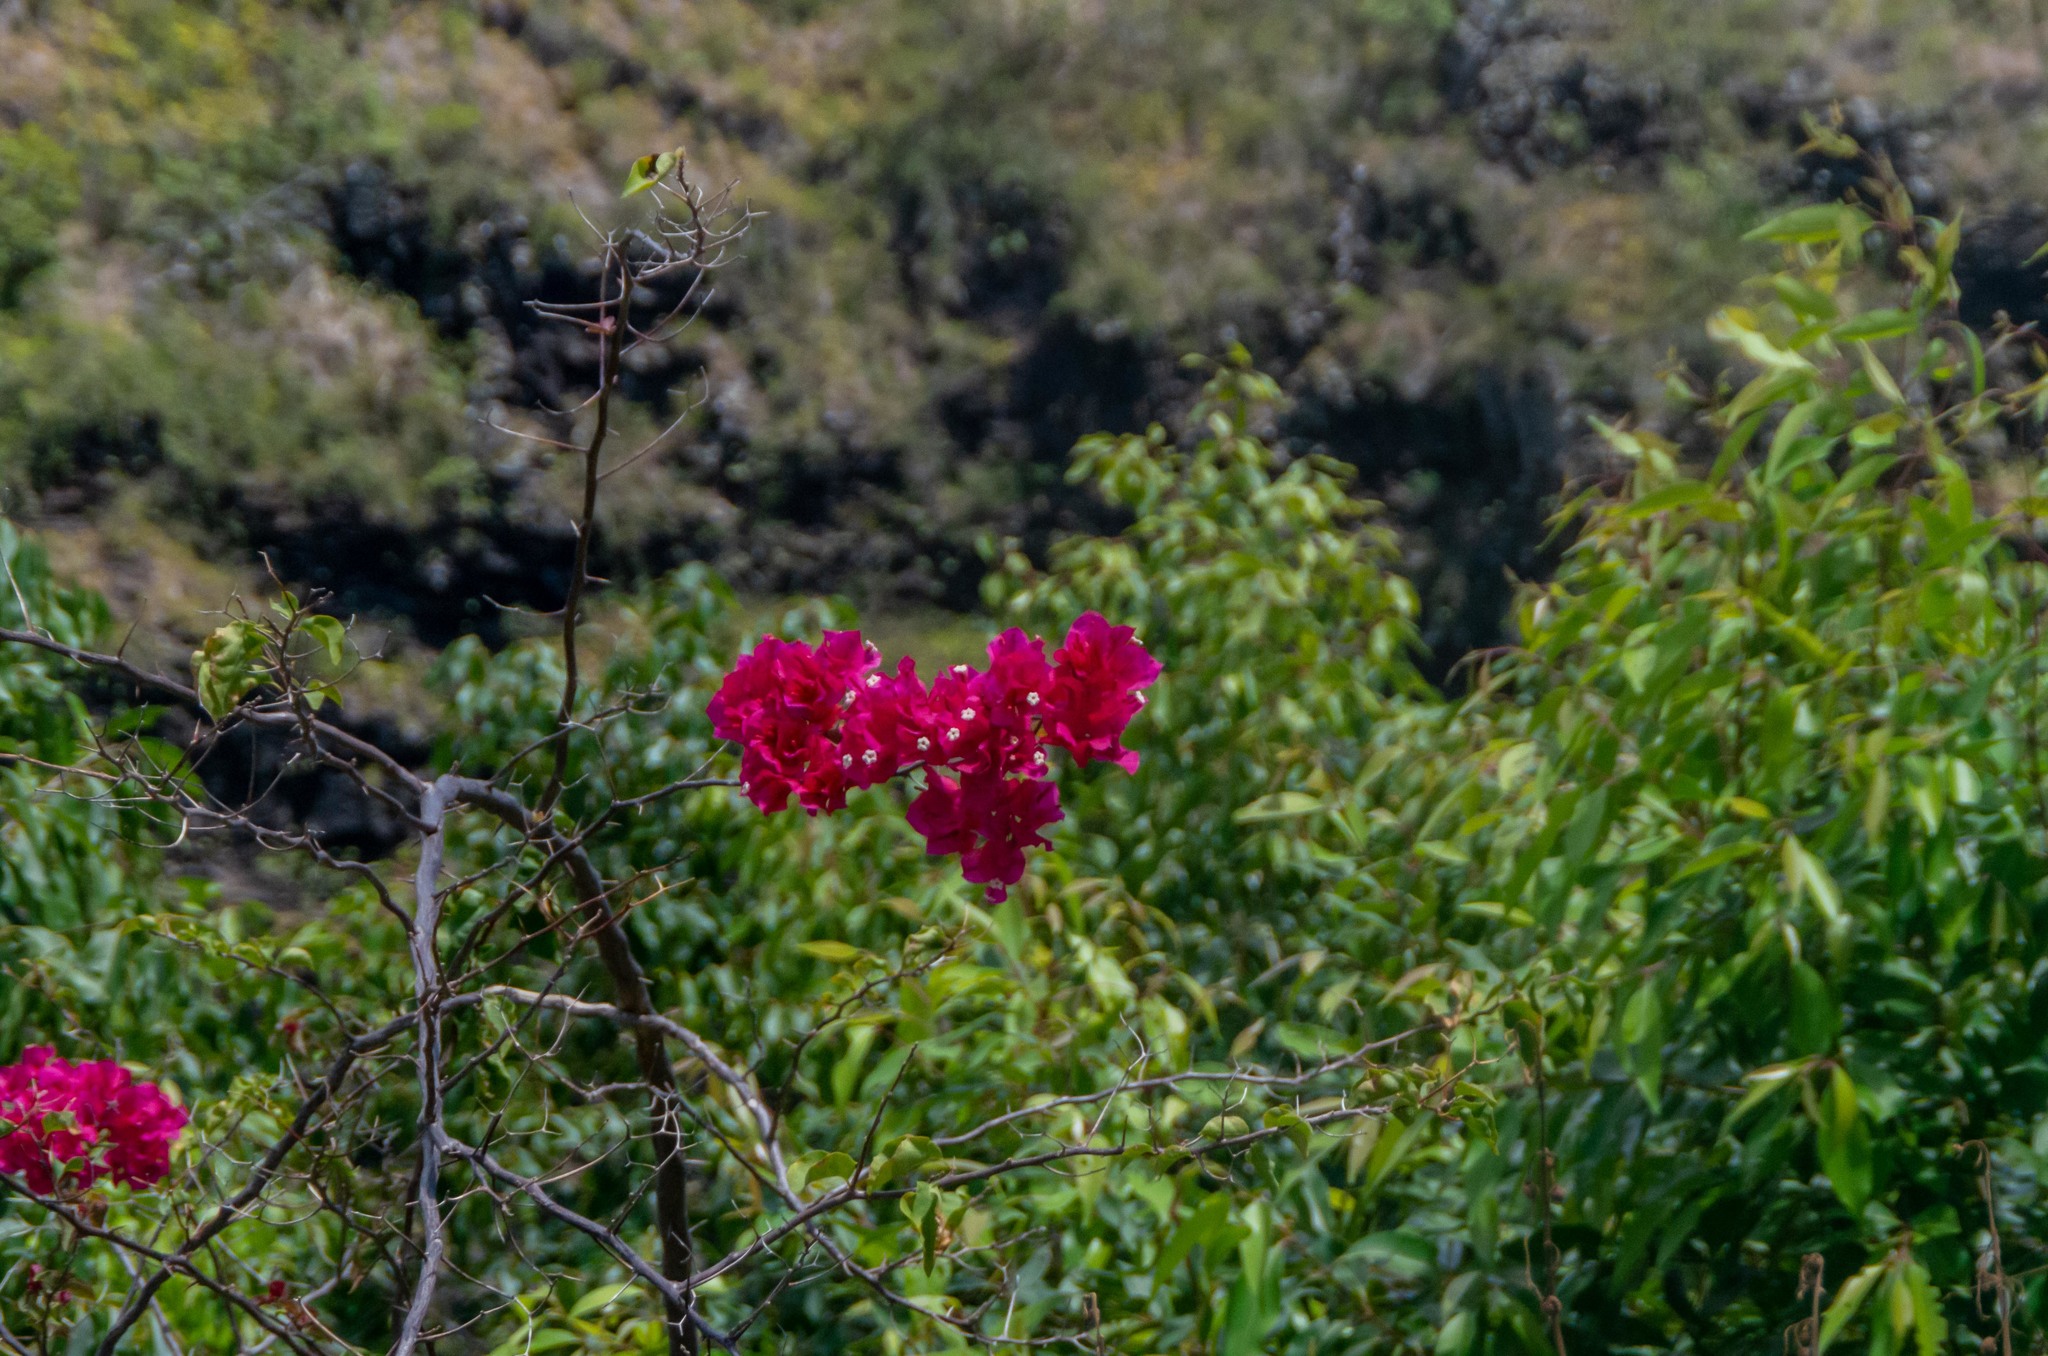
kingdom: Plantae
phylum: Tracheophyta
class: Magnoliopsida
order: Caryophyllales
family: Nyctaginaceae
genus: Bougainvillea
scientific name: Bougainvillea buttiana
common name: Bougainvillea
